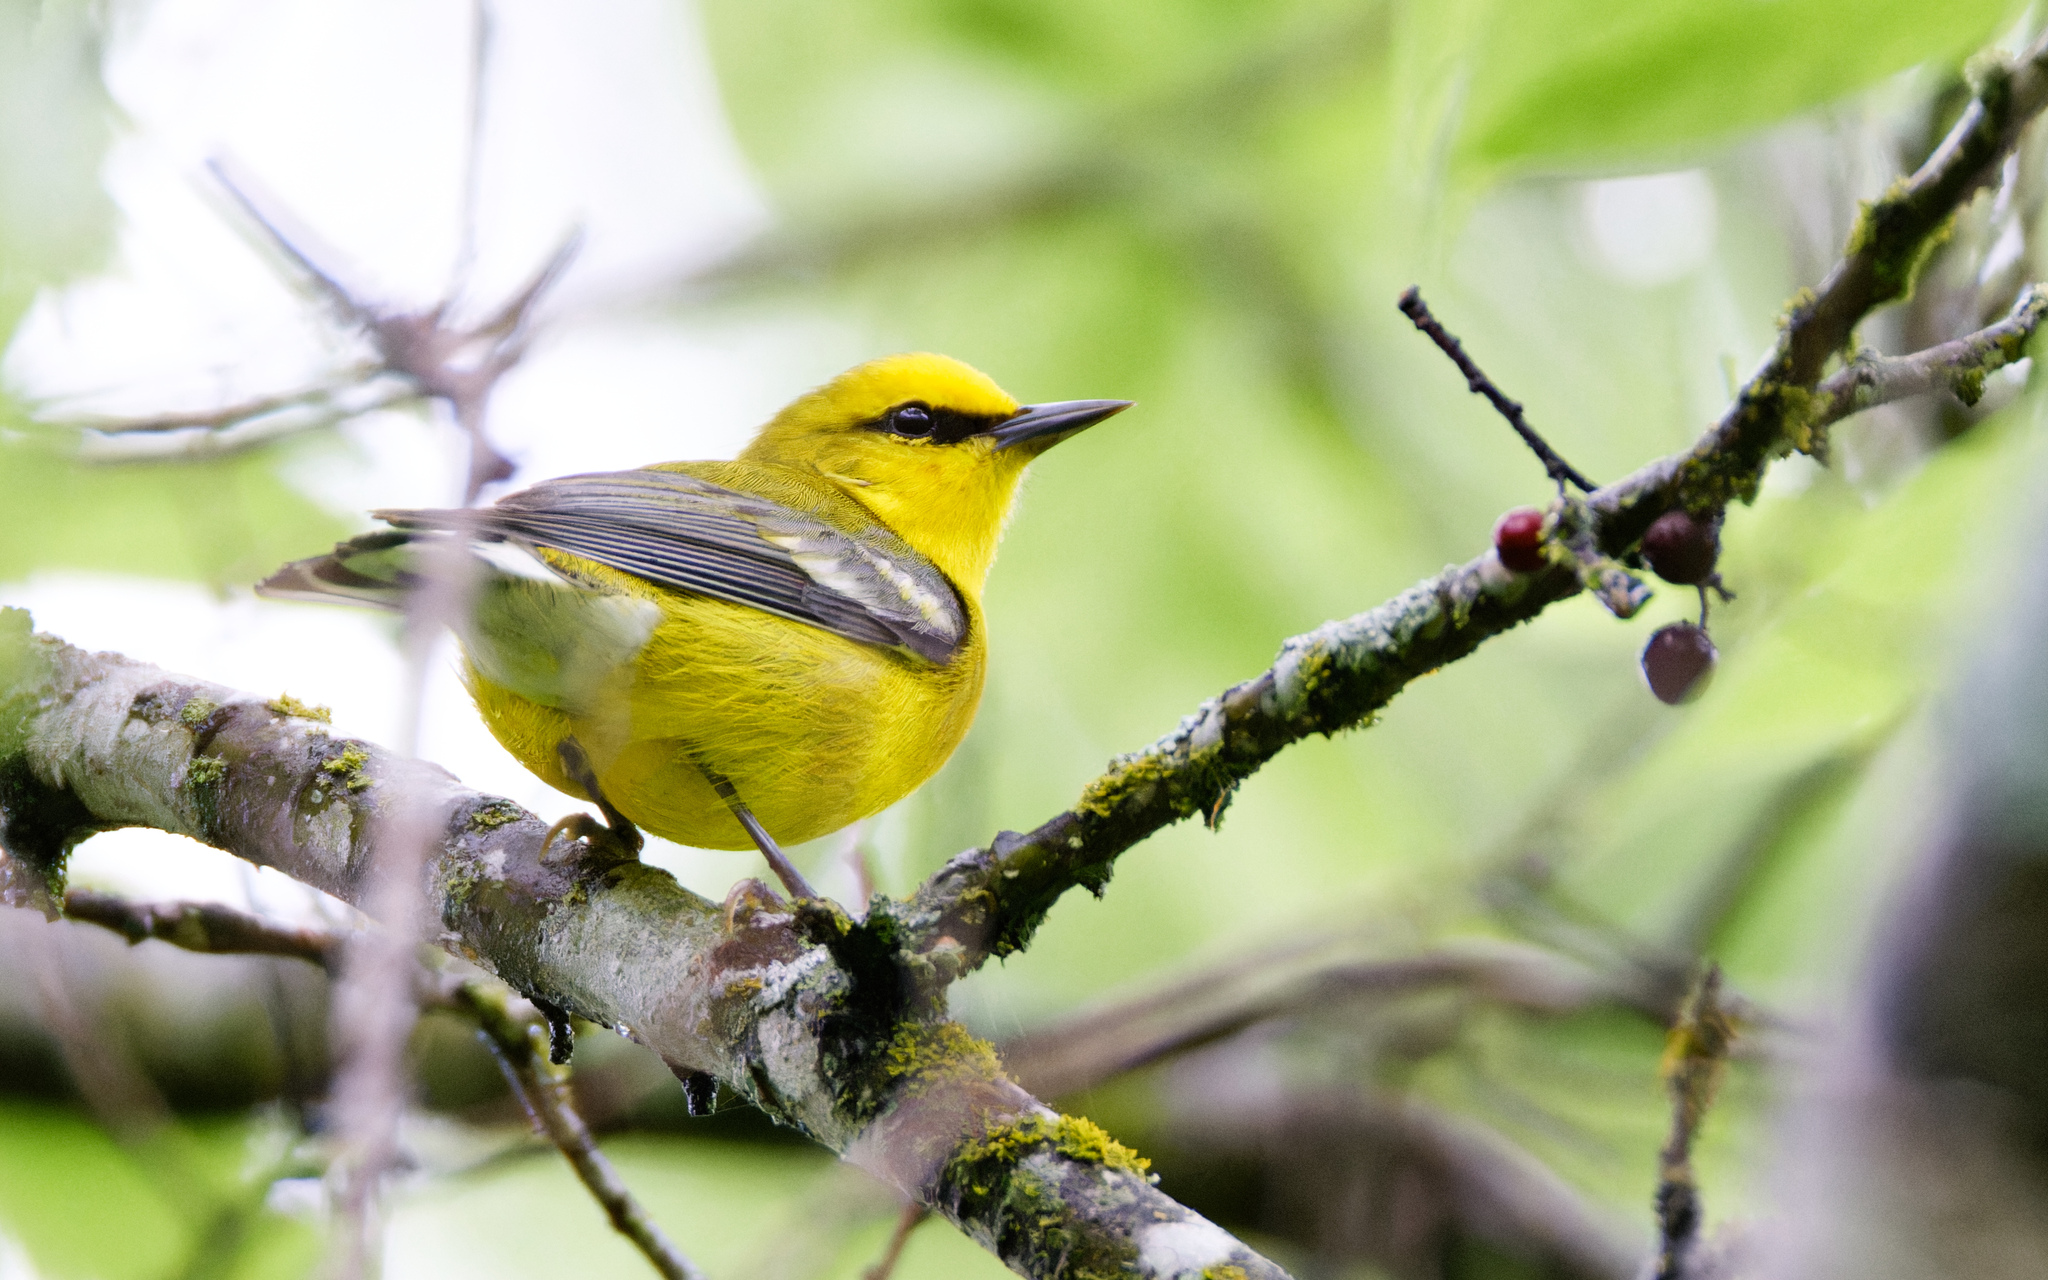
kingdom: Animalia
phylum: Chordata
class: Aves
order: Passeriformes
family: Parulidae
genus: Vermivora
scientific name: Vermivora cyanoptera
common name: Blue-winged warbler
